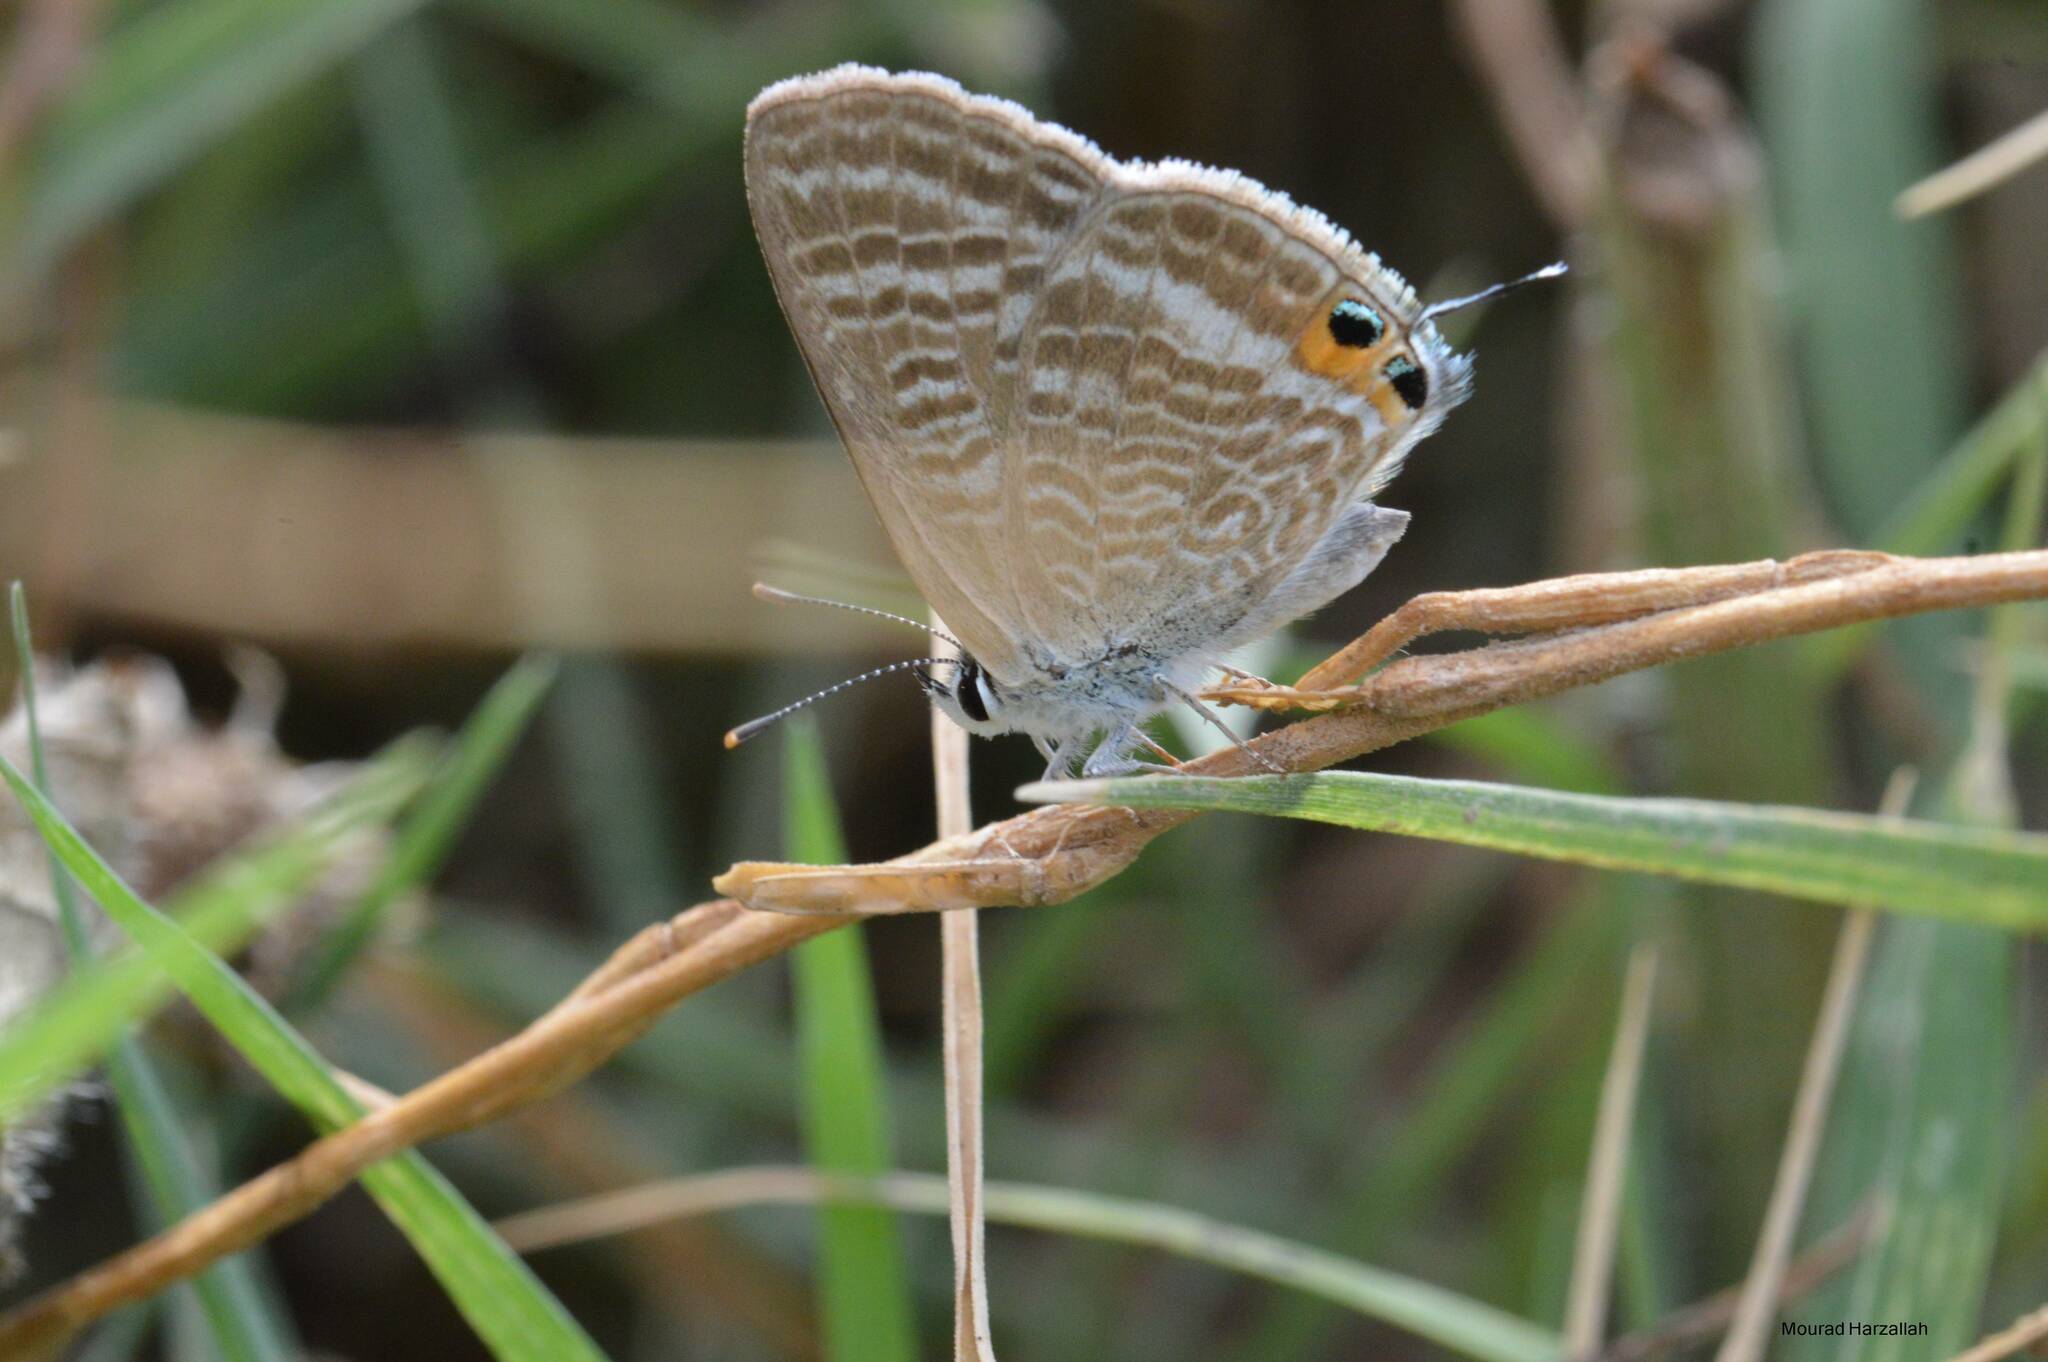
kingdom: Animalia
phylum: Arthropoda
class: Insecta
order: Lepidoptera
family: Lycaenidae
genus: Lampides
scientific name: Lampides boeticus
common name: Long-tailed blue
